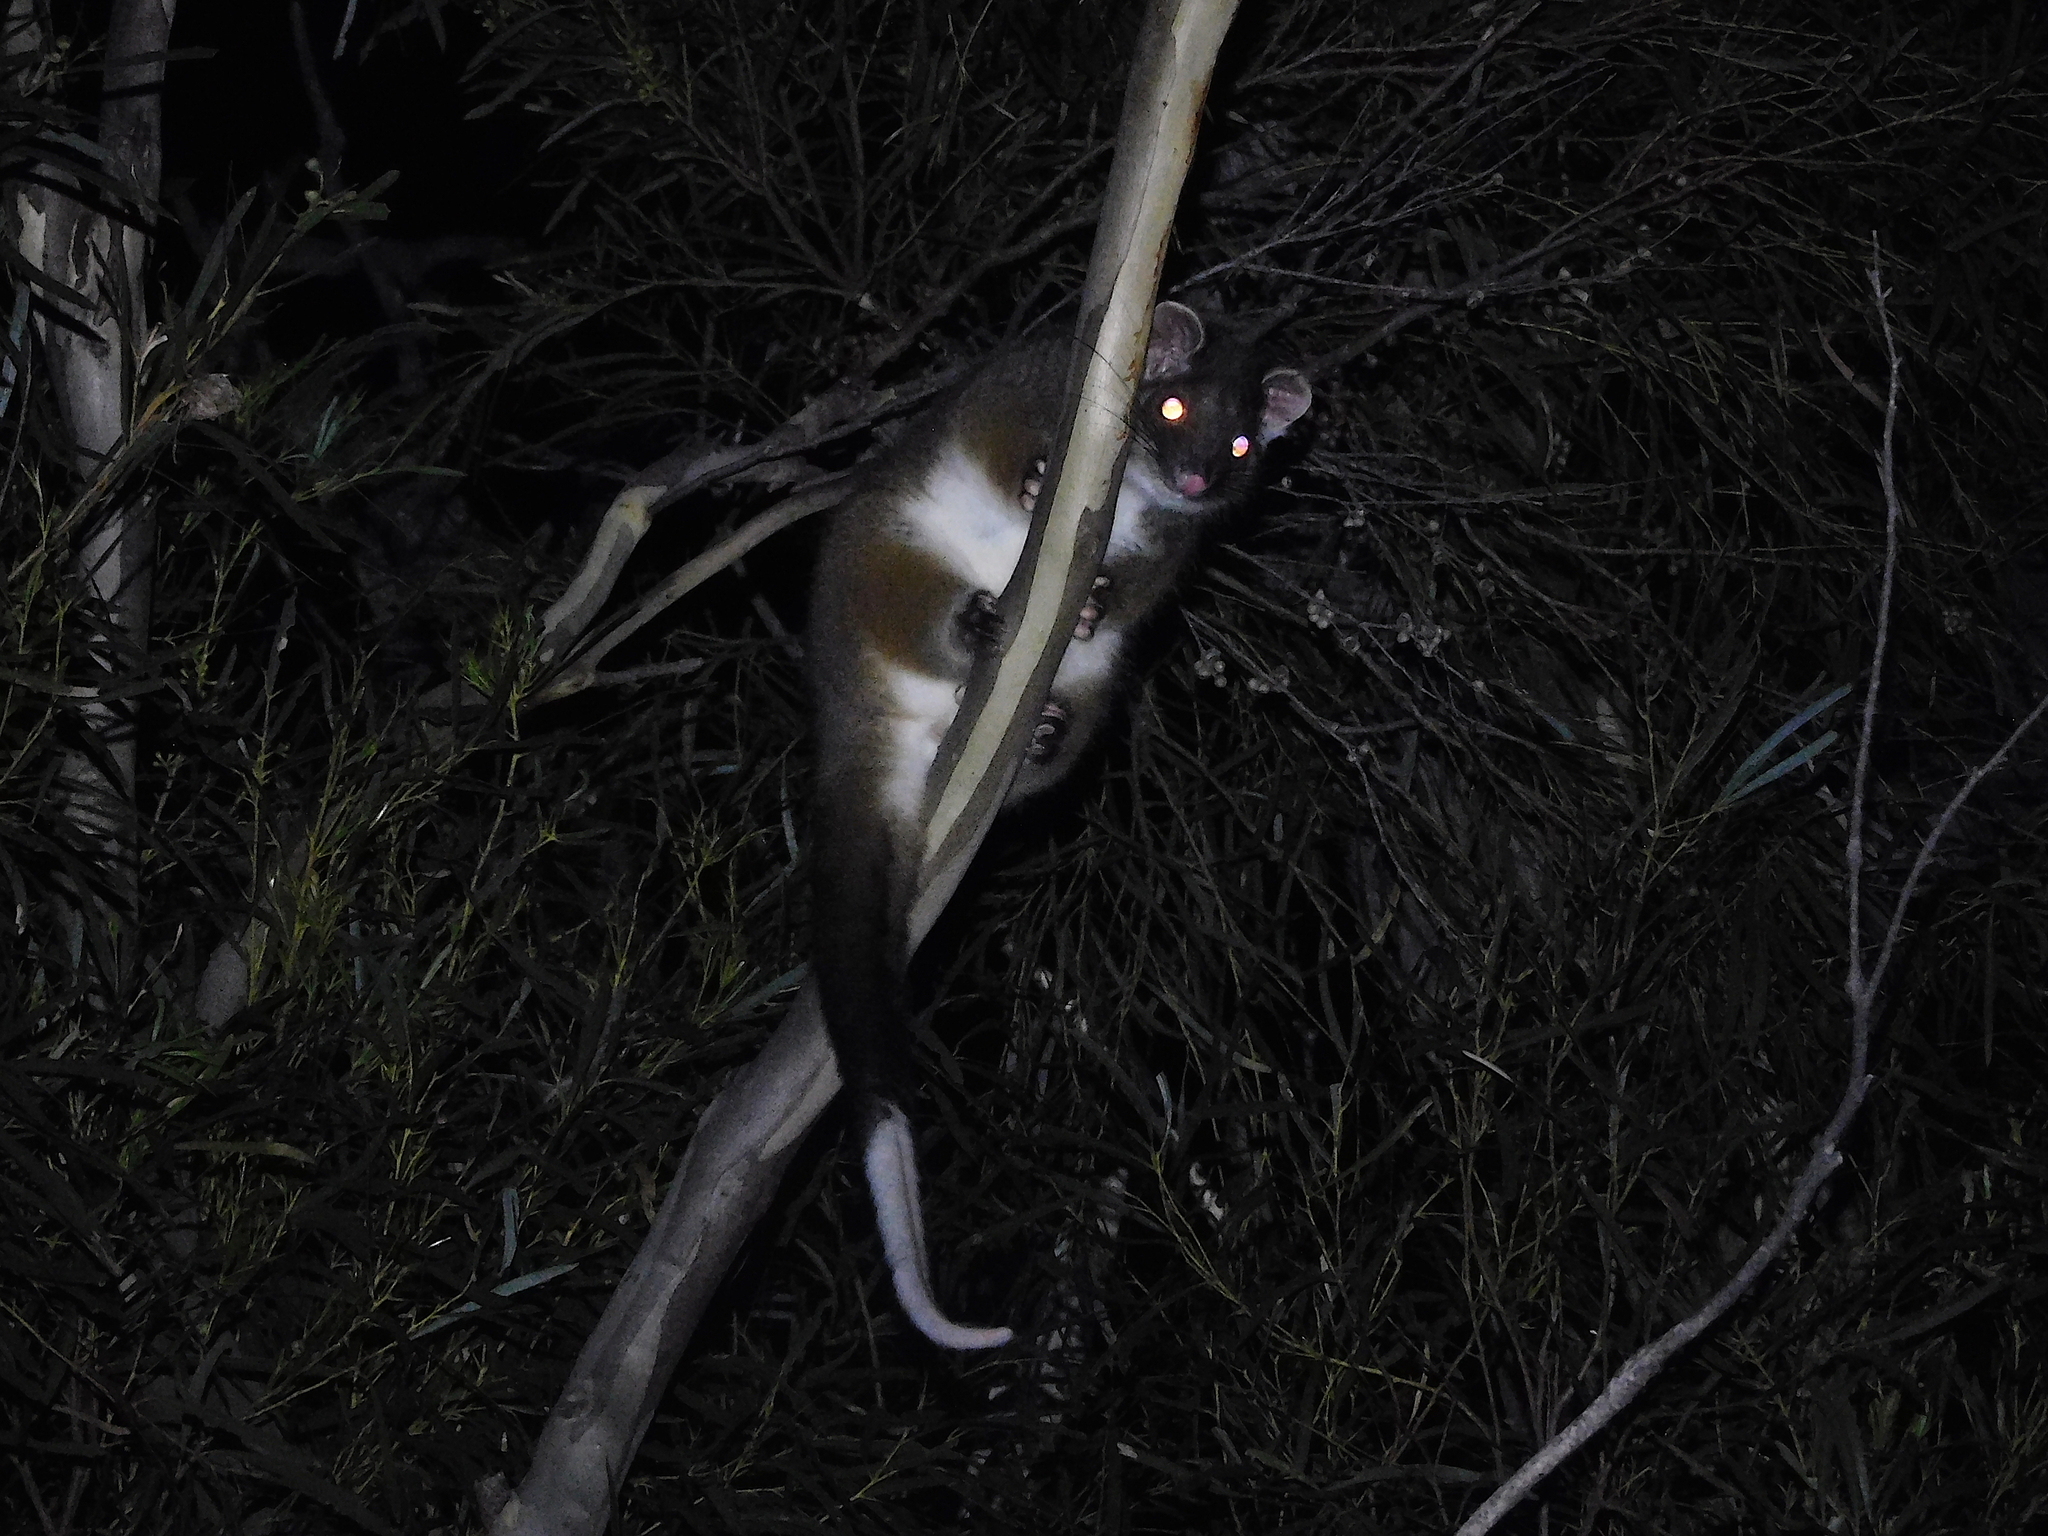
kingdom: Animalia
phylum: Chordata
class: Mammalia
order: Diprotodontia
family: Pseudocheiridae
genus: Pseudocheirus
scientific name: Pseudocheirus peregrinus
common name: Common ringtail possum
